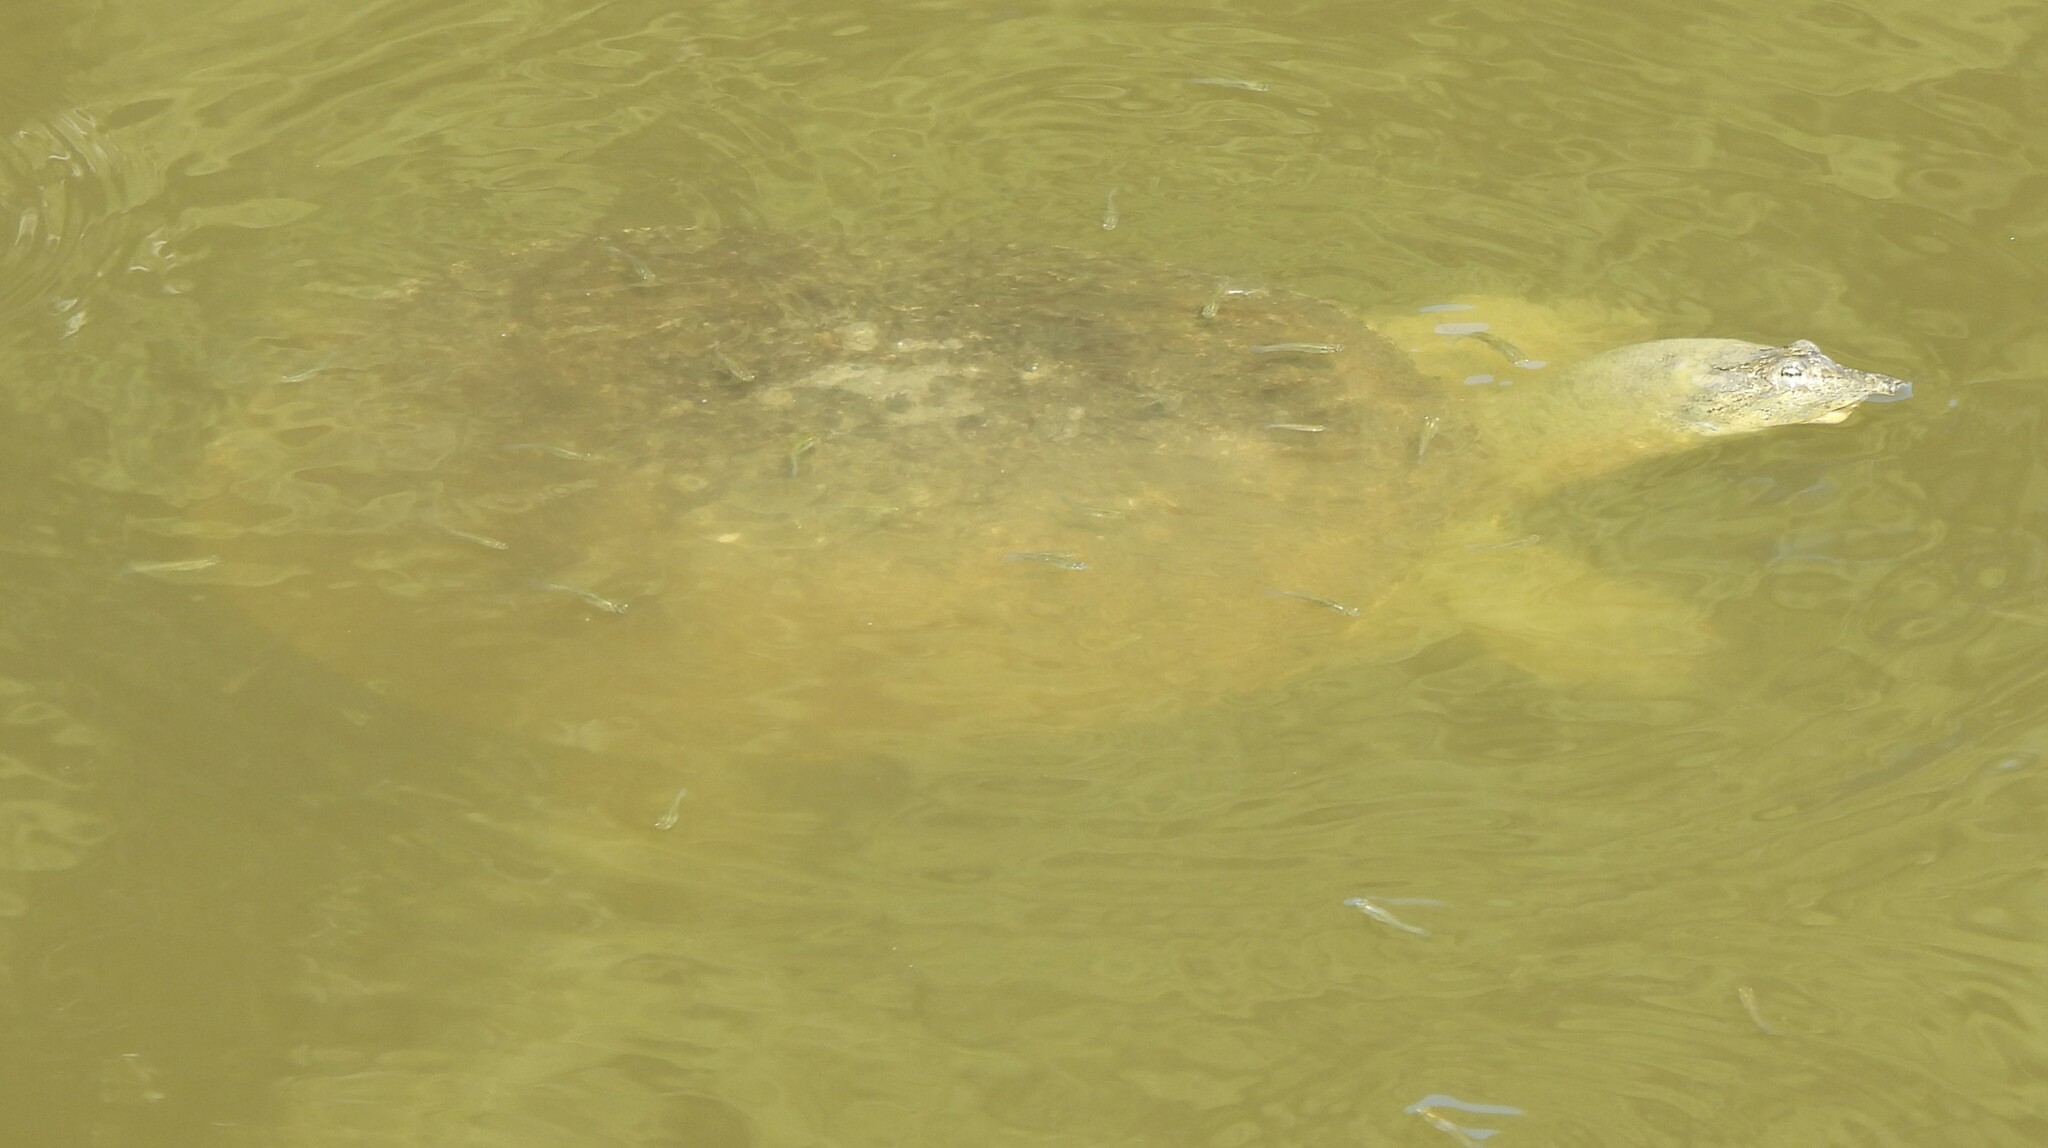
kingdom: Animalia
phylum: Chordata
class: Testudines
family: Trionychidae
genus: Apalone
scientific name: Apalone spinifera
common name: Spiny softshell turtle
